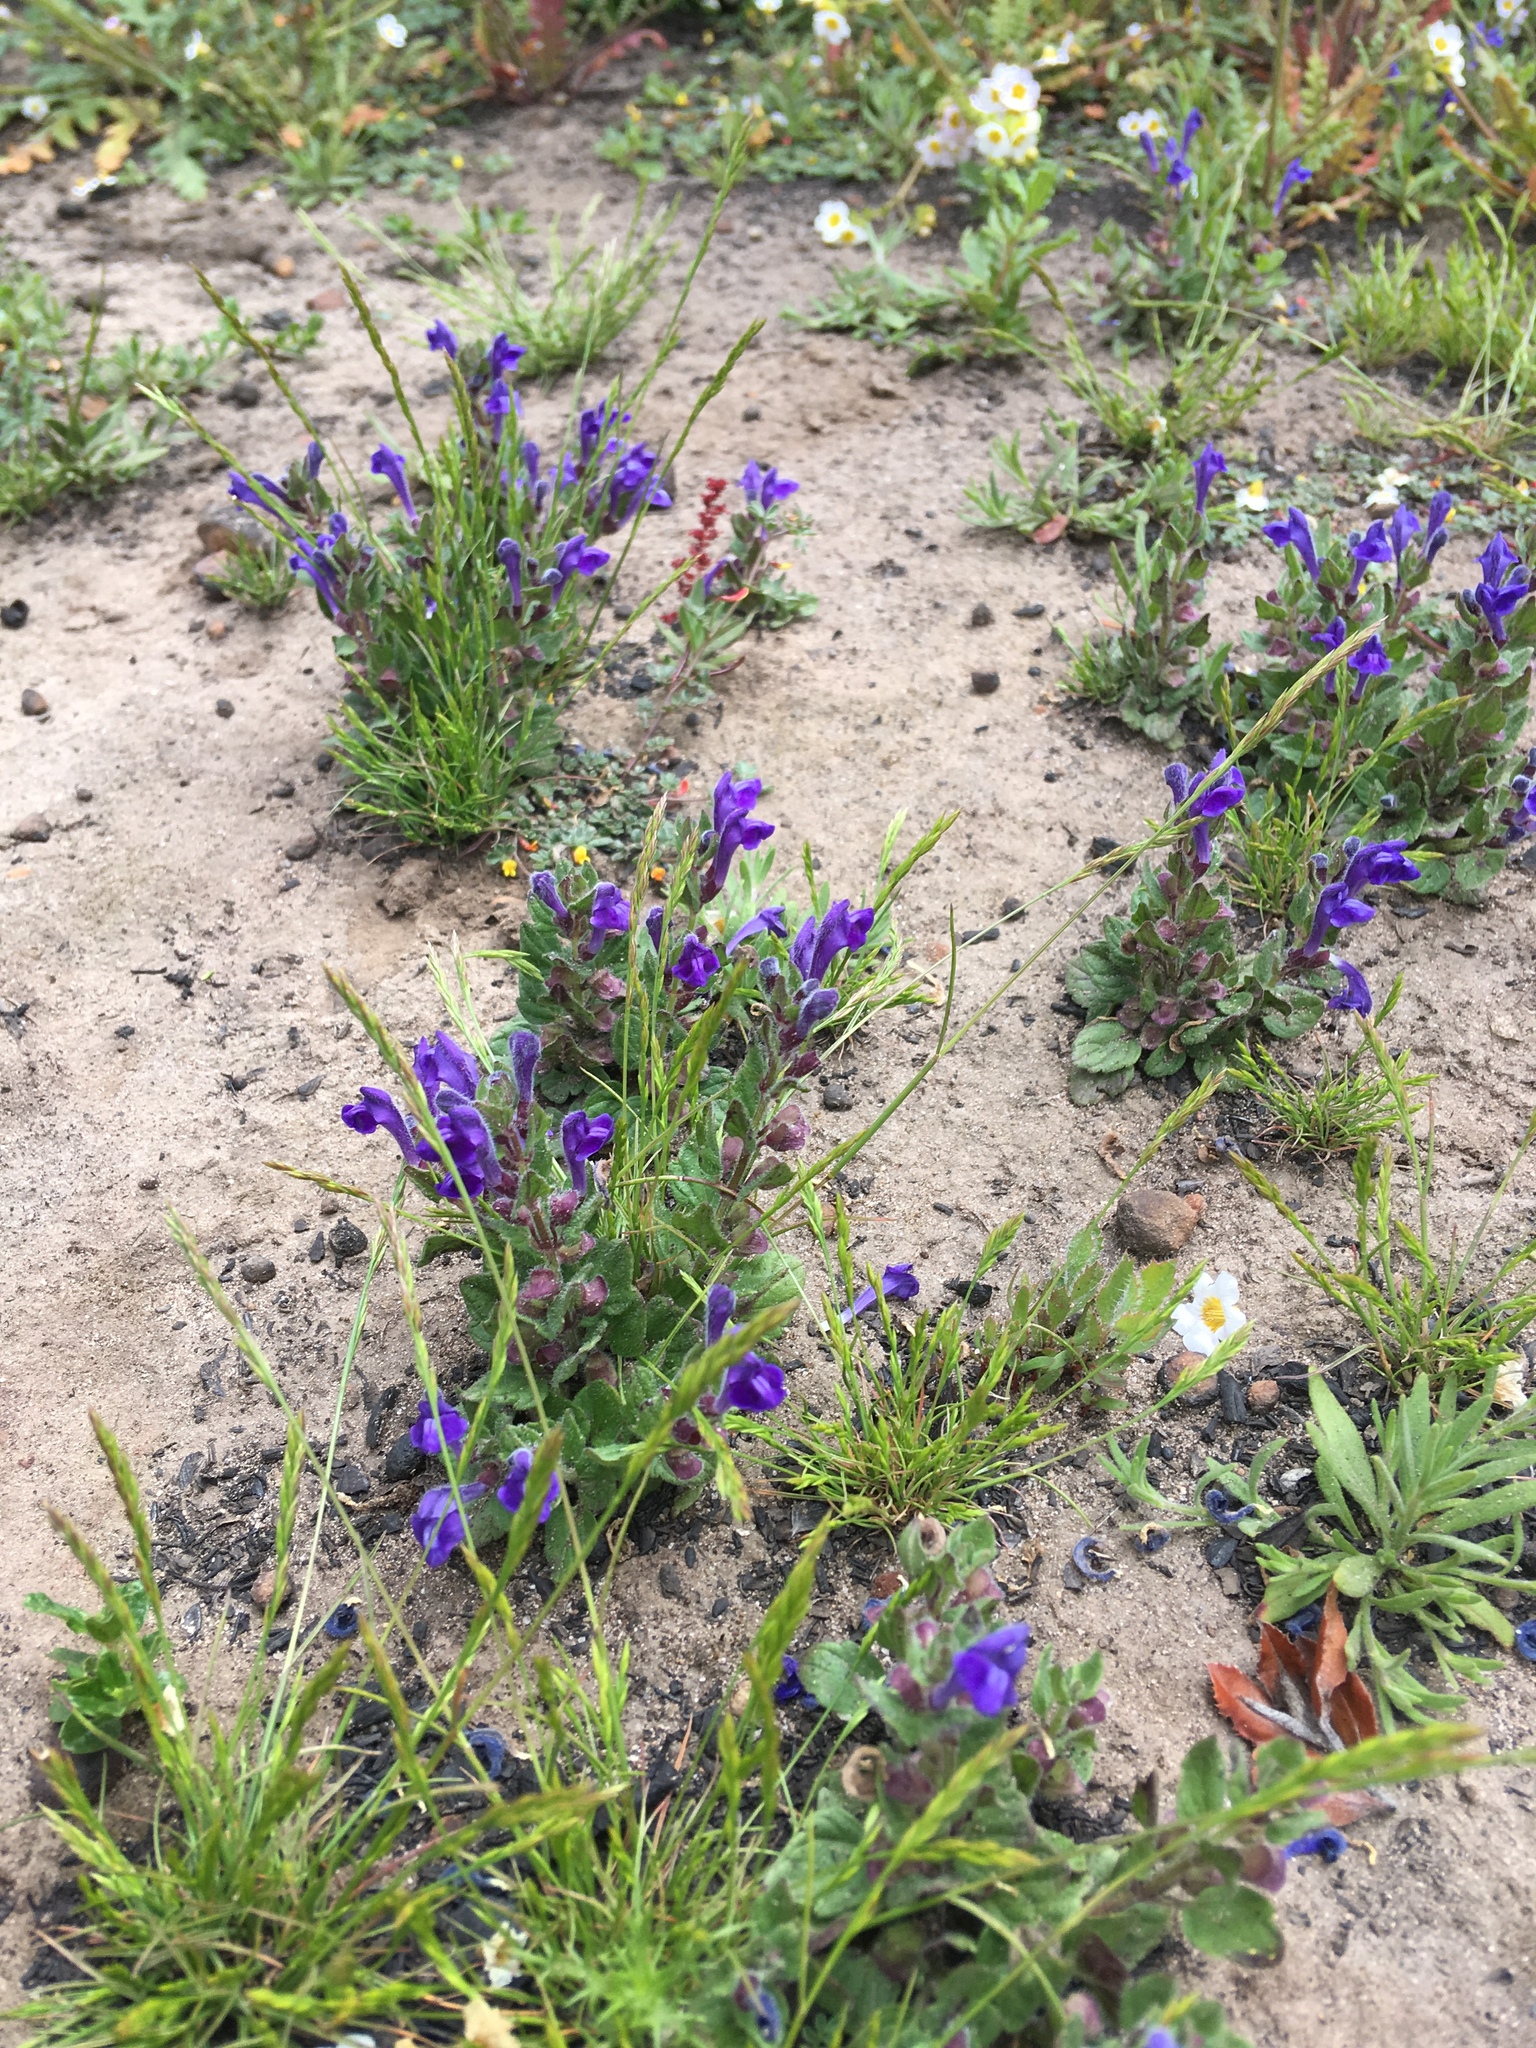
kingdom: Plantae
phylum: Tracheophyta
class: Magnoliopsida
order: Lamiales
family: Lamiaceae
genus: Scutellaria
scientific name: Scutellaria tuberosa
